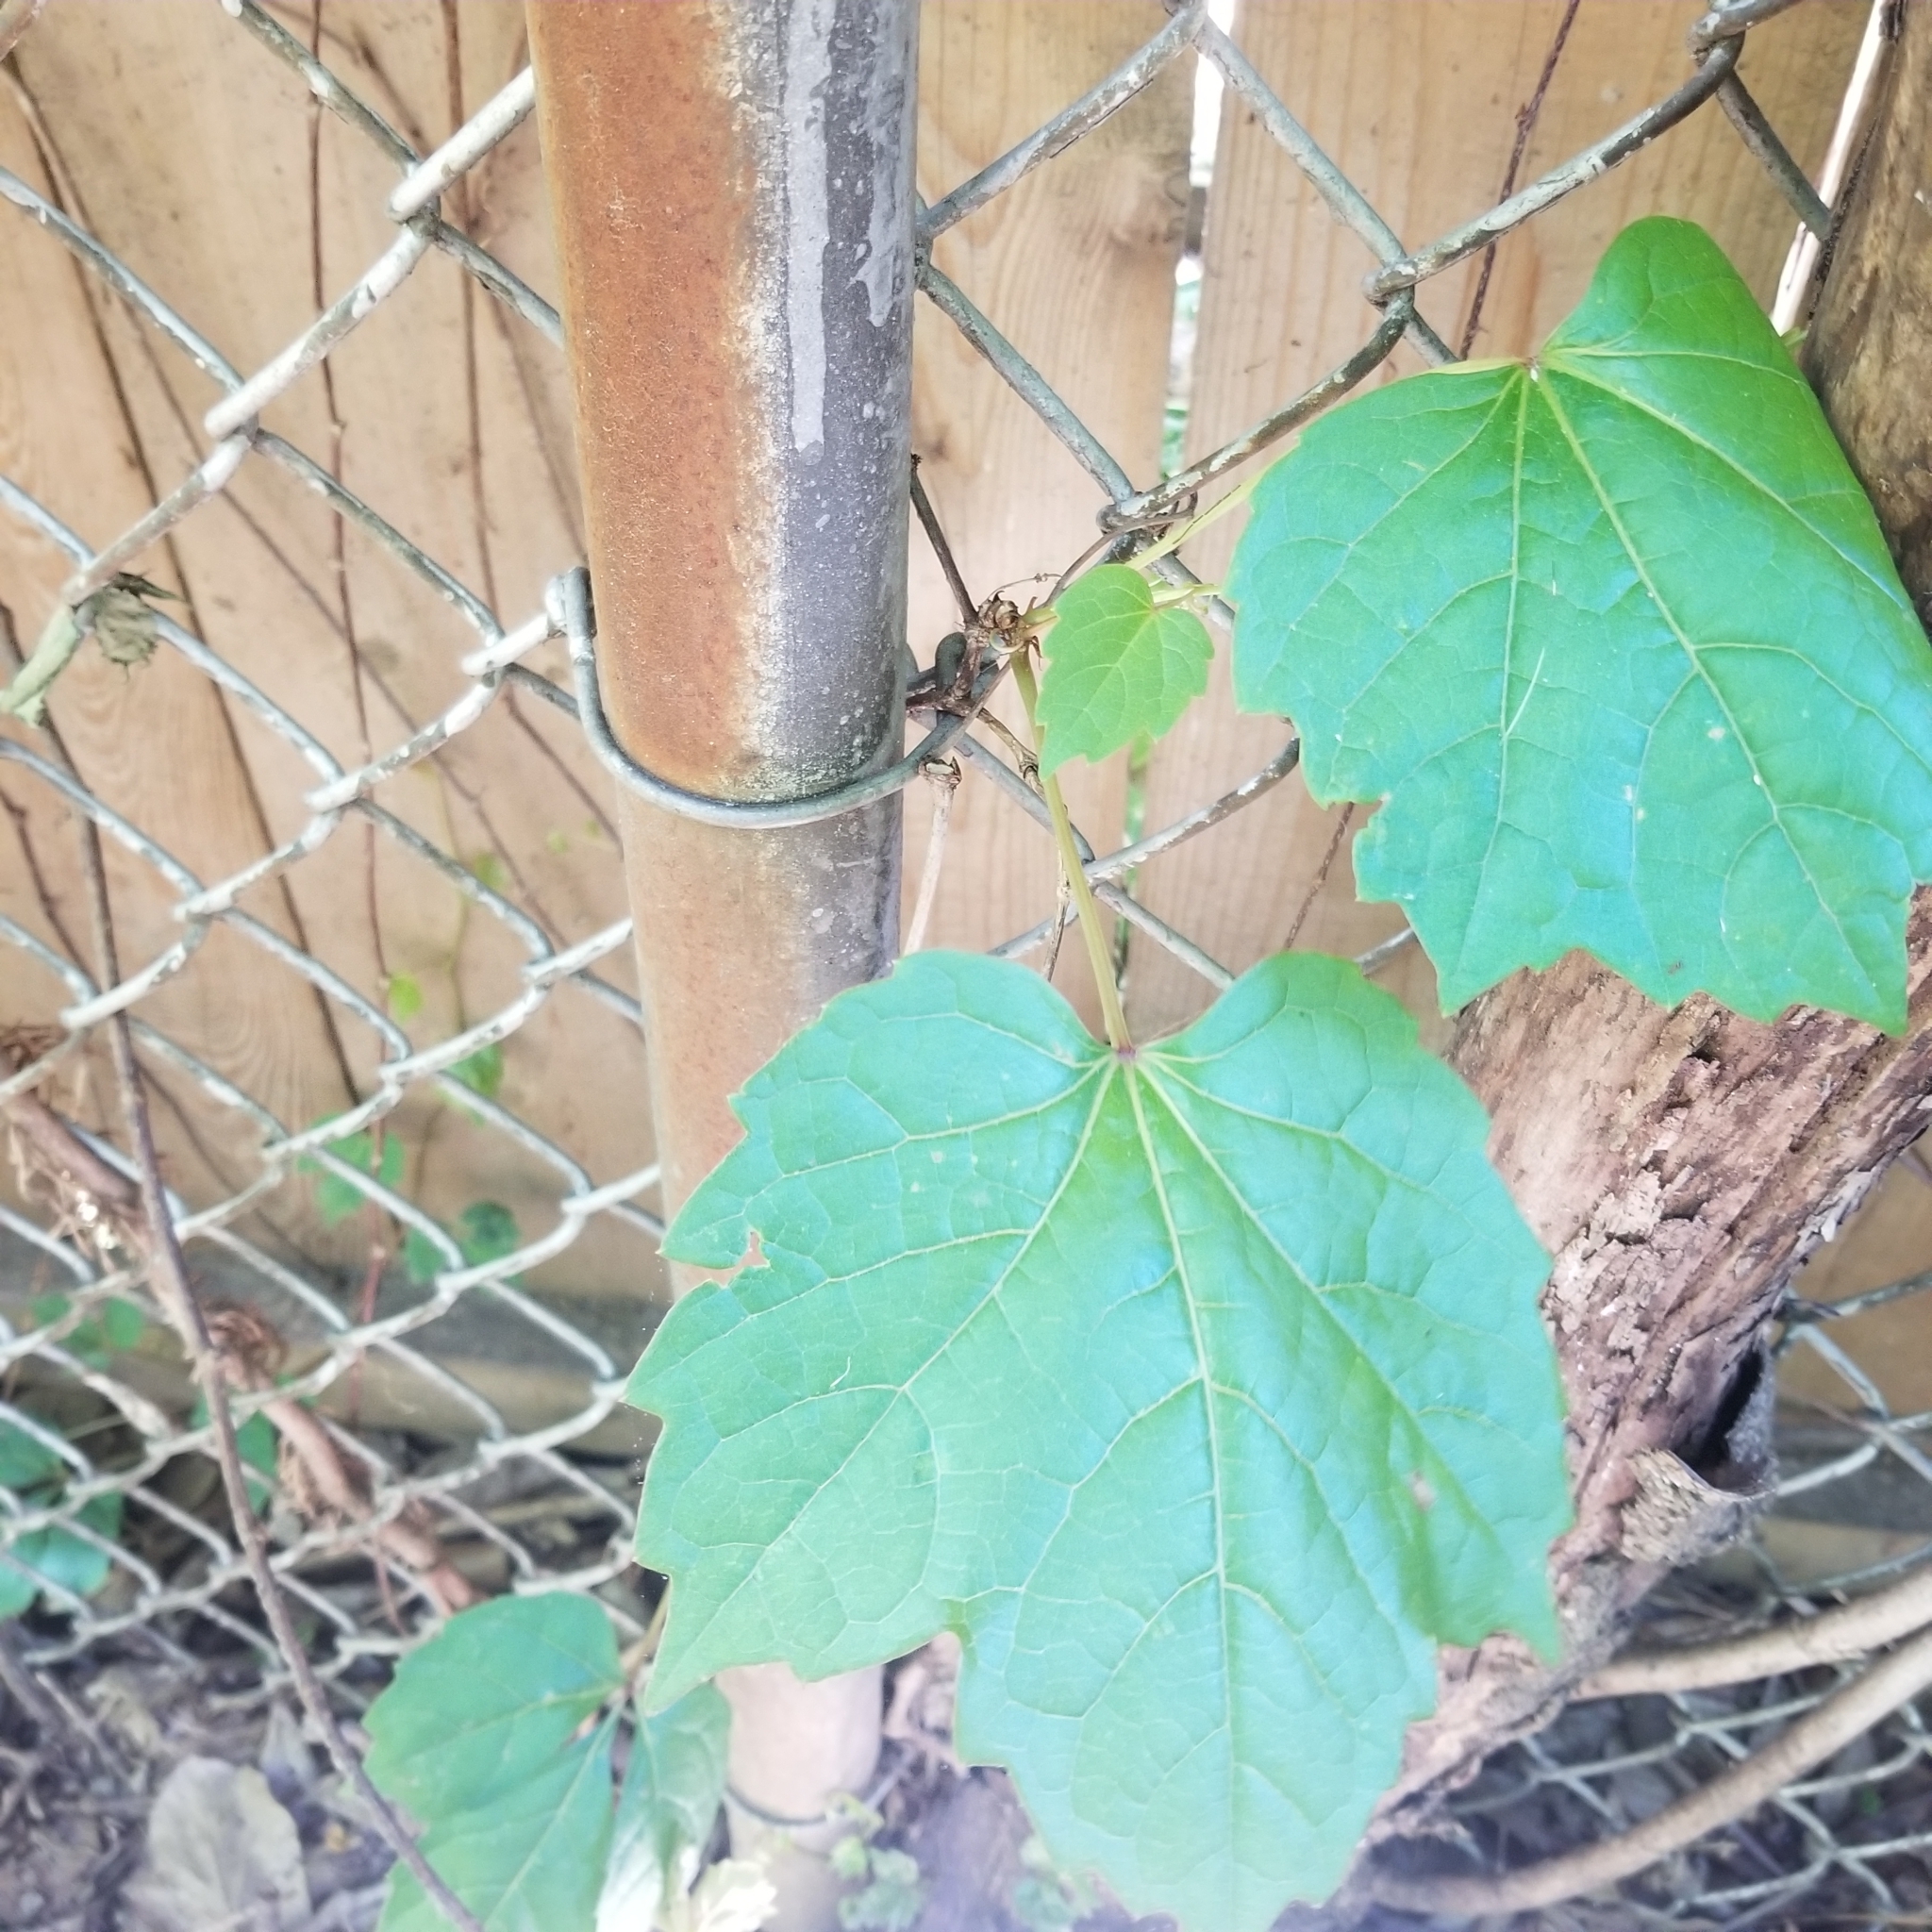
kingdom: Plantae
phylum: Tracheophyta
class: Magnoliopsida
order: Vitales
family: Vitaceae
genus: Parthenocissus
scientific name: Parthenocissus tricuspidata
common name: Boston ivy
